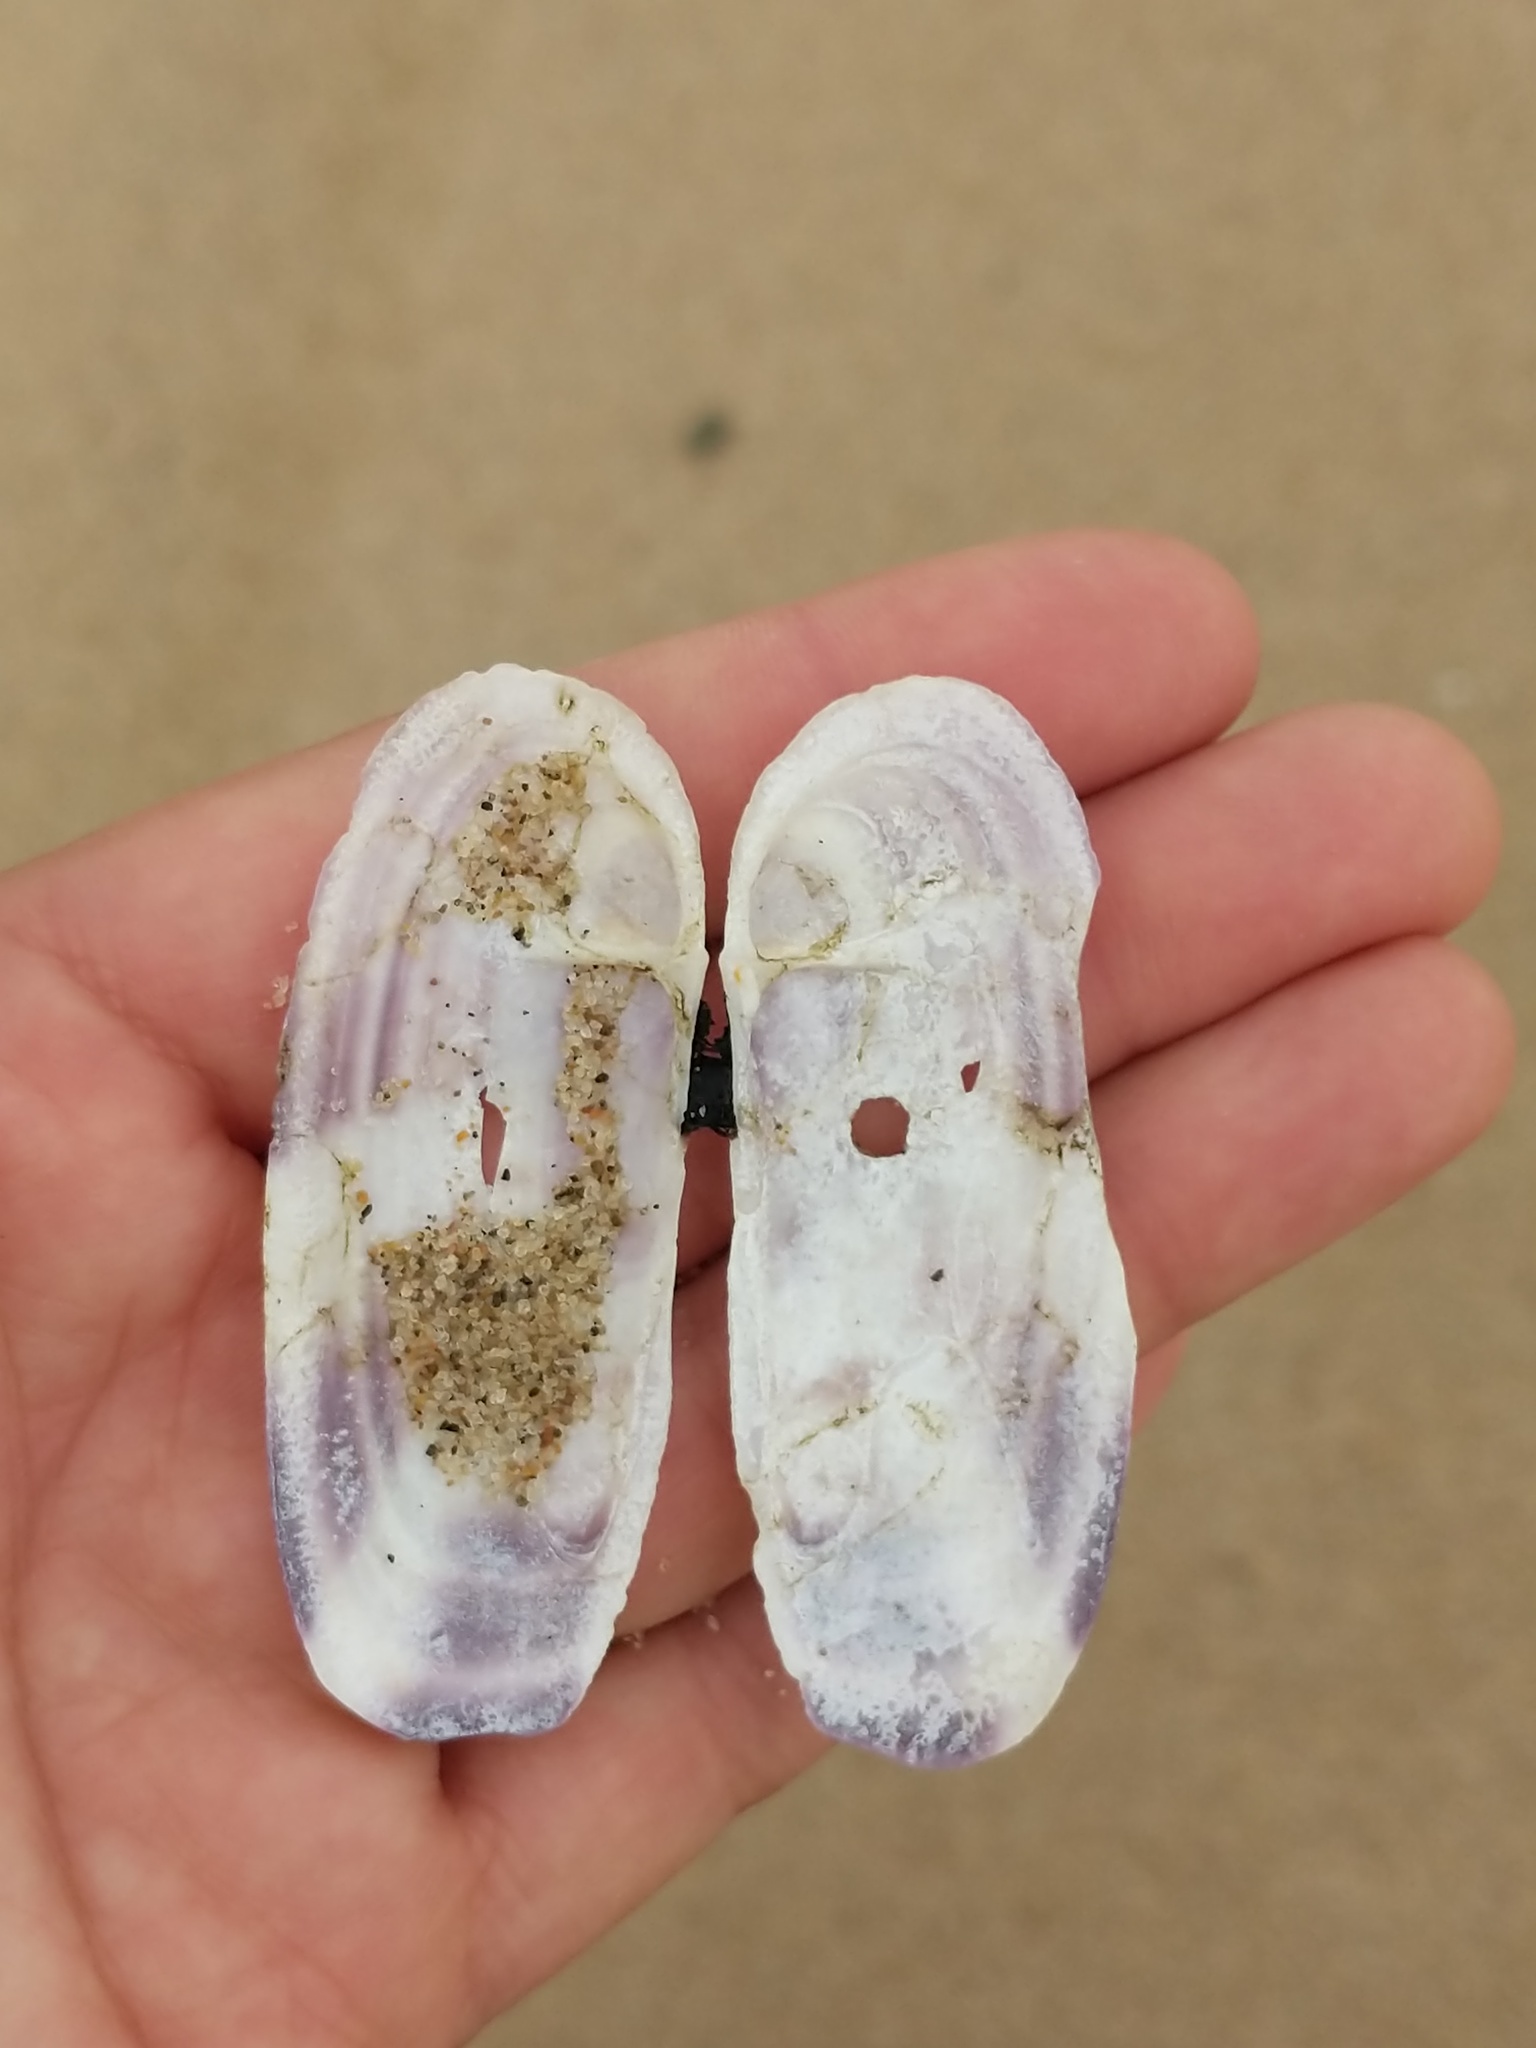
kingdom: Animalia
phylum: Mollusca
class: Bivalvia
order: Adapedonta
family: Pharidae
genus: Siliqua
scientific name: Siliqua lucida
